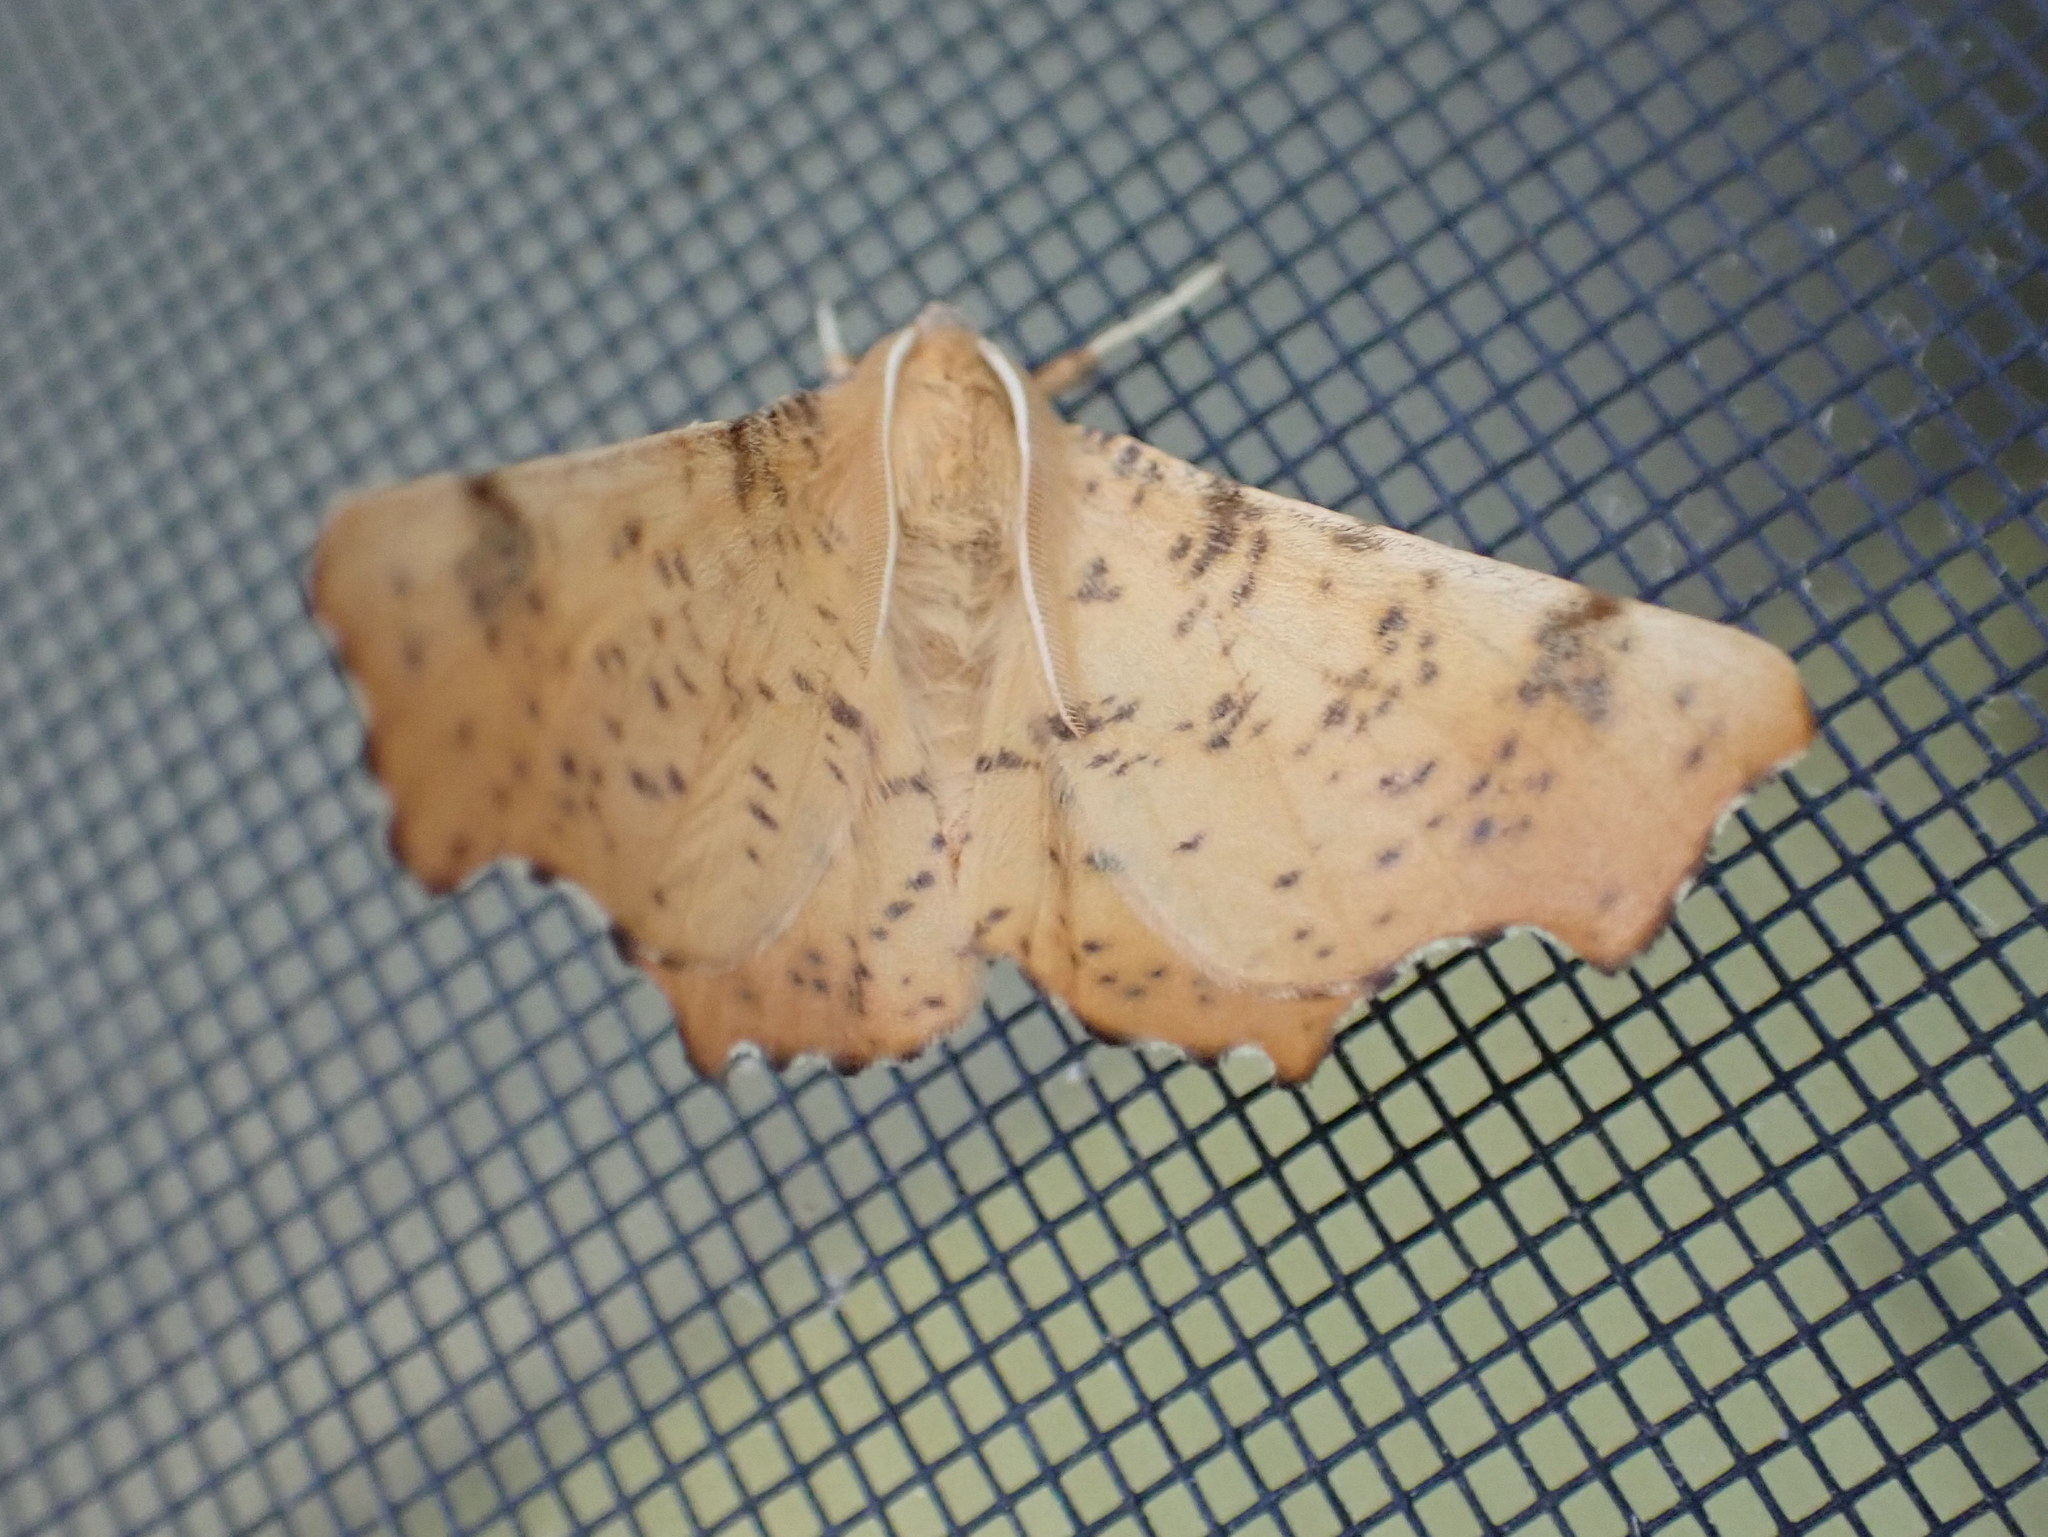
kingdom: Animalia
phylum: Arthropoda
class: Insecta
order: Lepidoptera
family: Geometridae
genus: Ennomos
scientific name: Ennomos magnaria
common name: Maple spanworm
